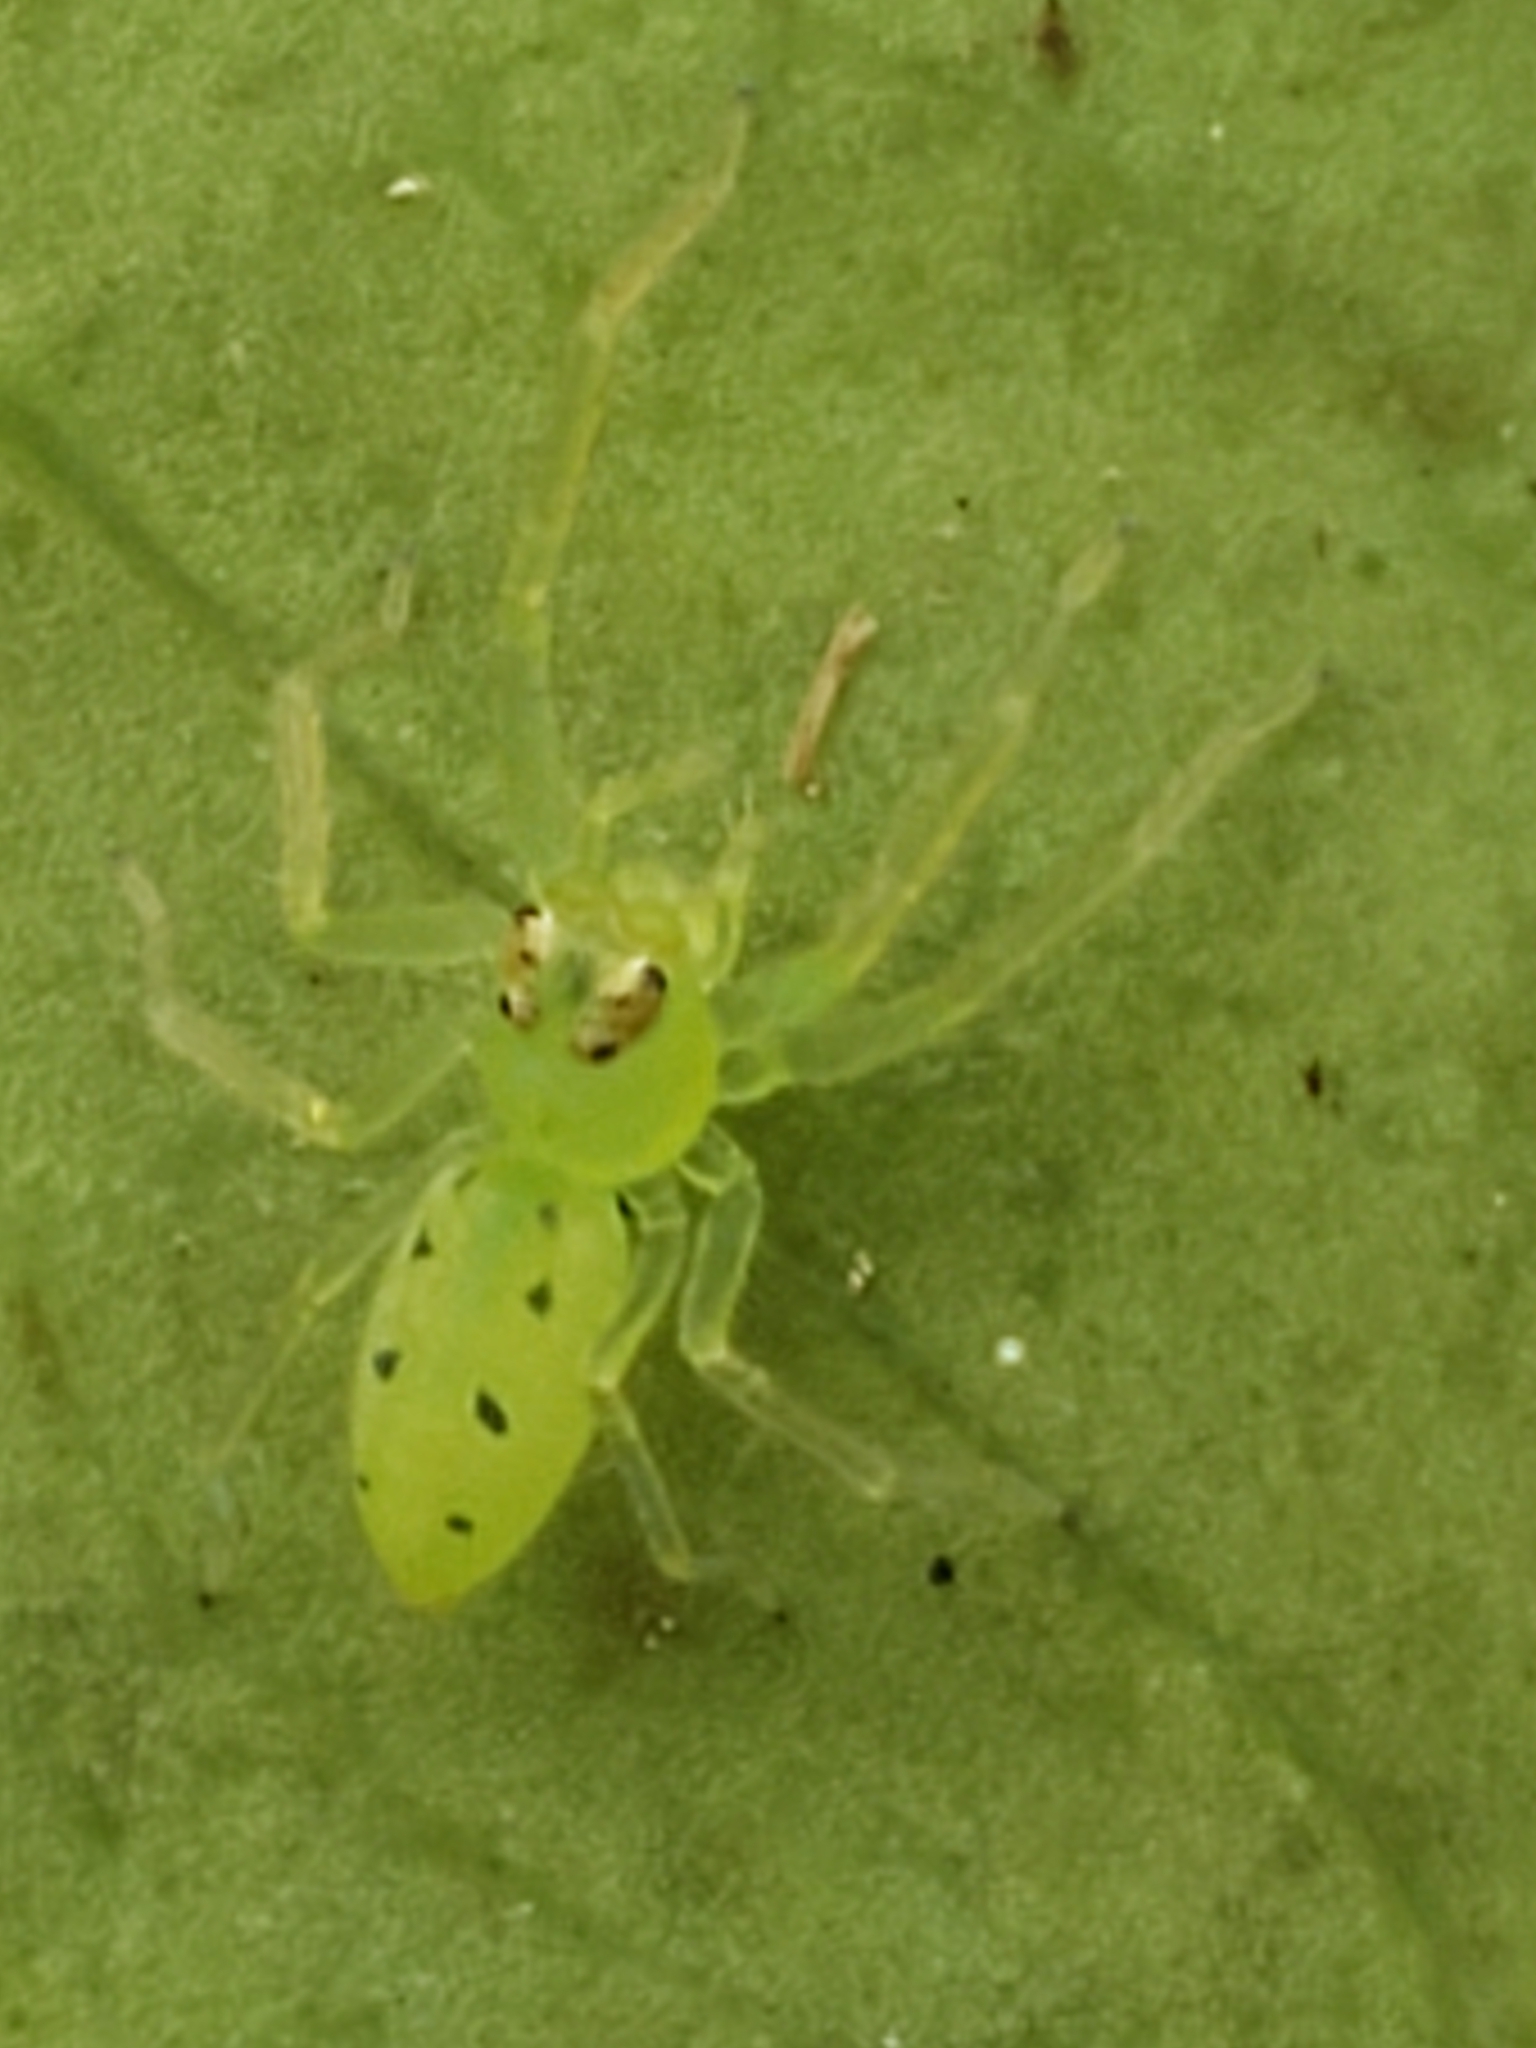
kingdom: Animalia
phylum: Arthropoda
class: Arachnida
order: Araneae
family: Salticidae
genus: Lyssomanes
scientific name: Lyssomanes viridis
